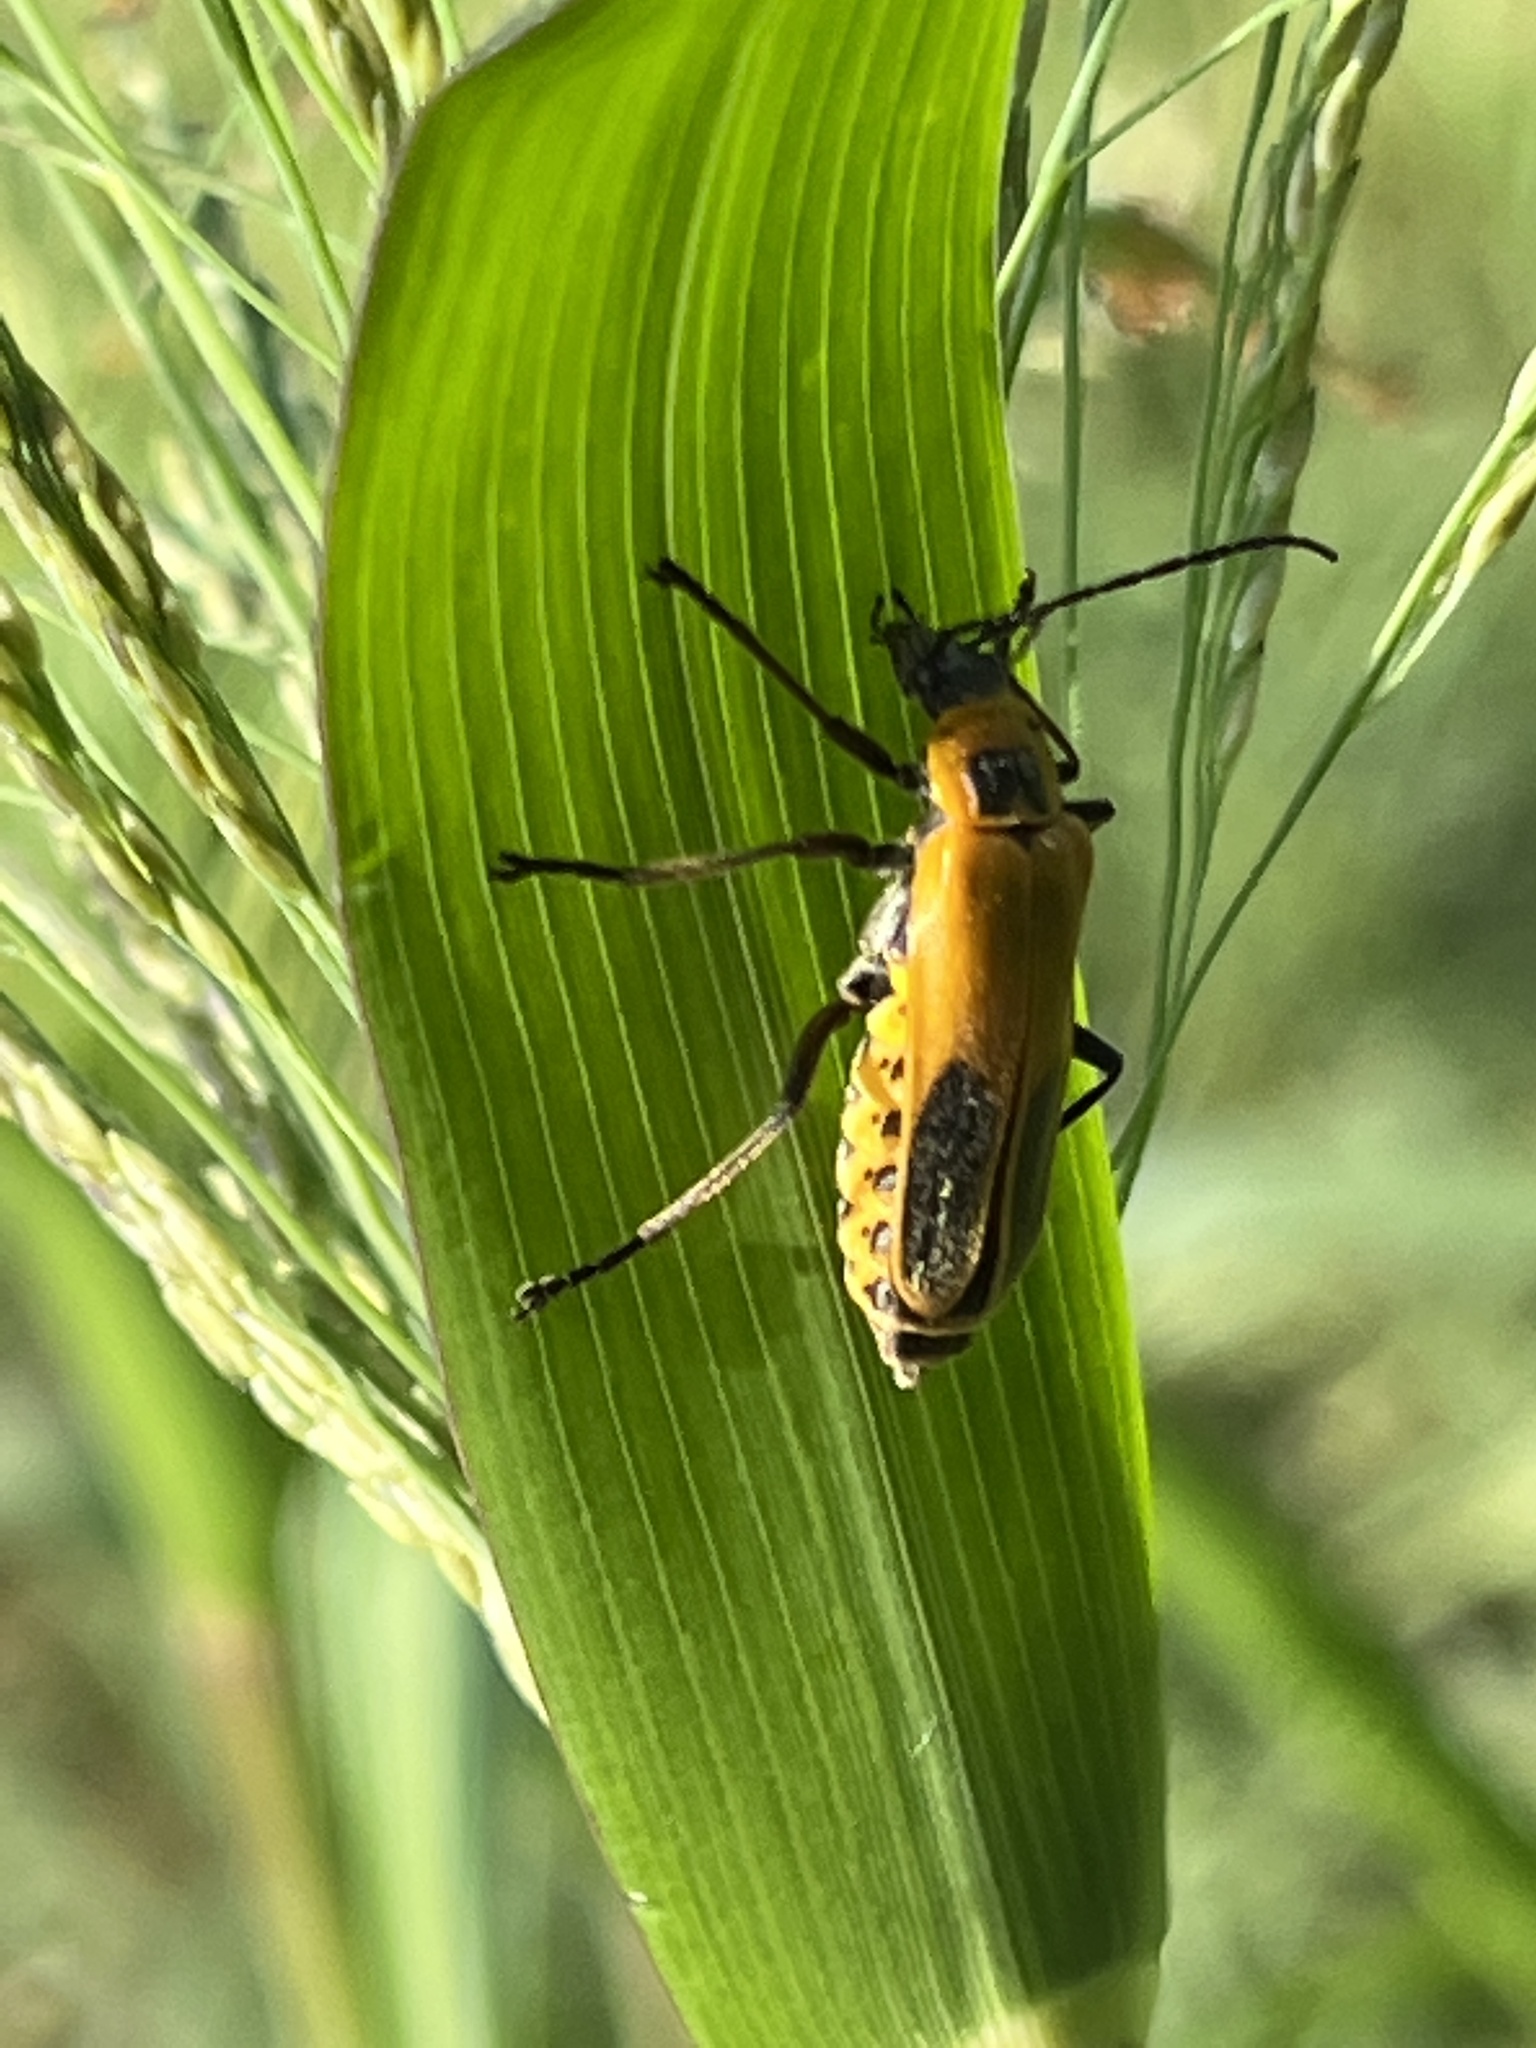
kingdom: Animalia
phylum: Arthropoda
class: Insecta
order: Coleoptera
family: Cantharidae
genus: Chauliognathus
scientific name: Chauliognathus pensylvanicus
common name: Goldenrod soldier beetle
